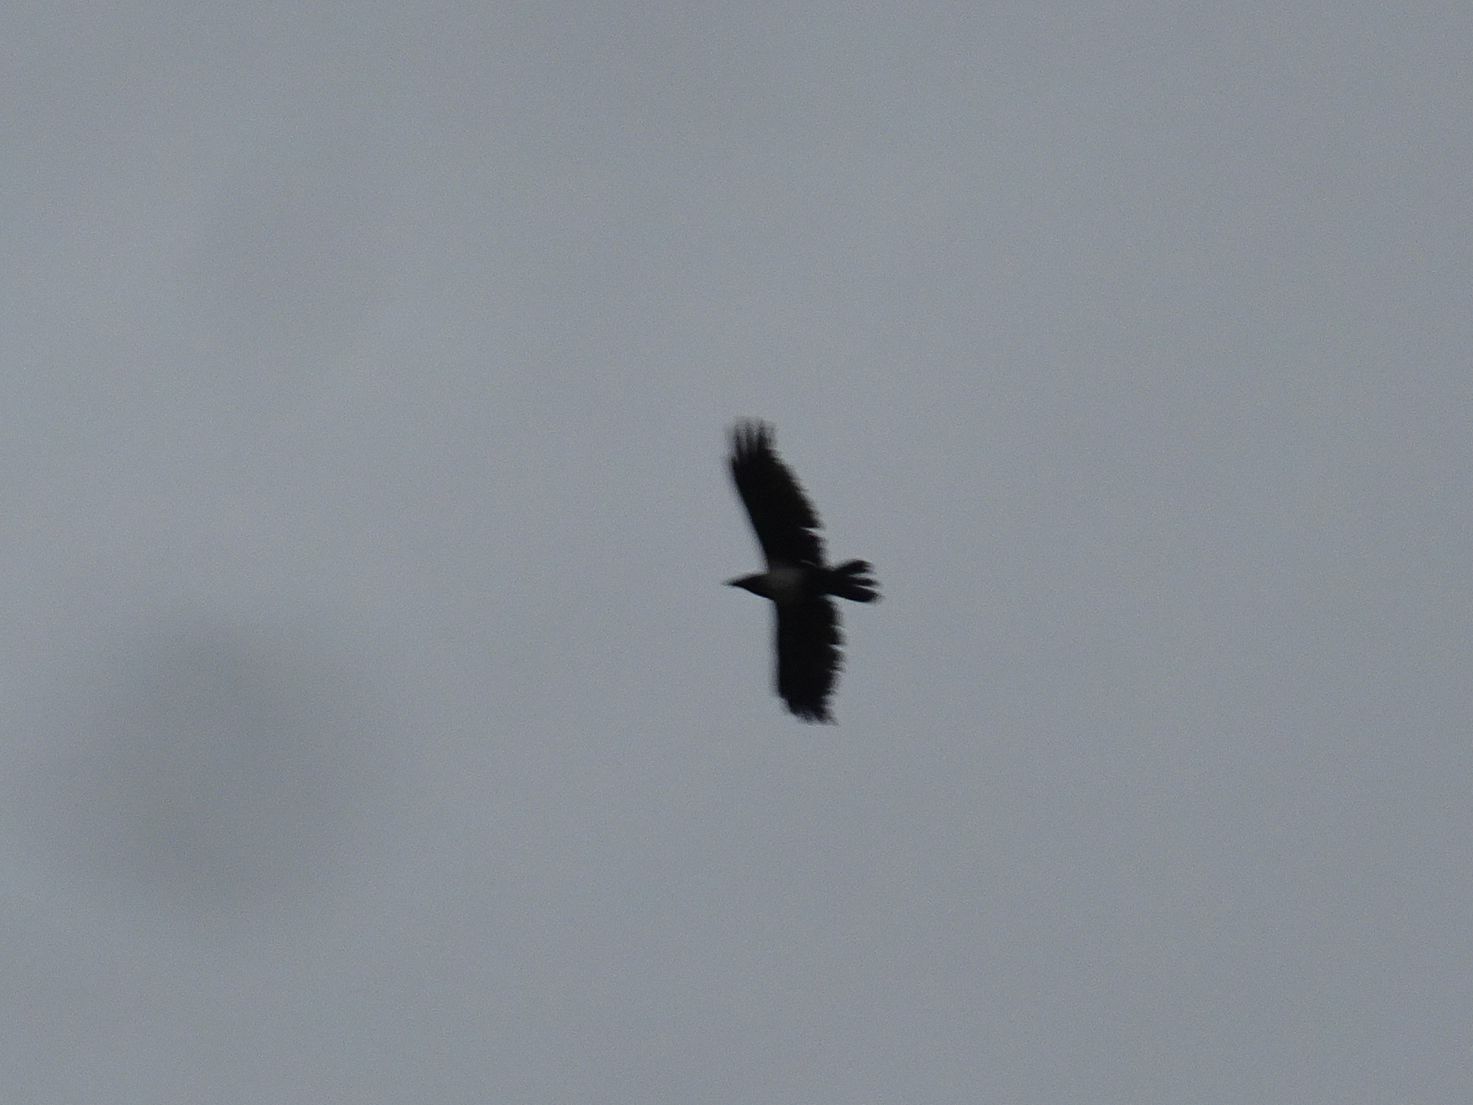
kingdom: Animalia
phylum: Chordata
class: Aves
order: Passeriformes
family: Corvidae
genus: Corvus
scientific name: Corvus albus
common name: Pied crow
